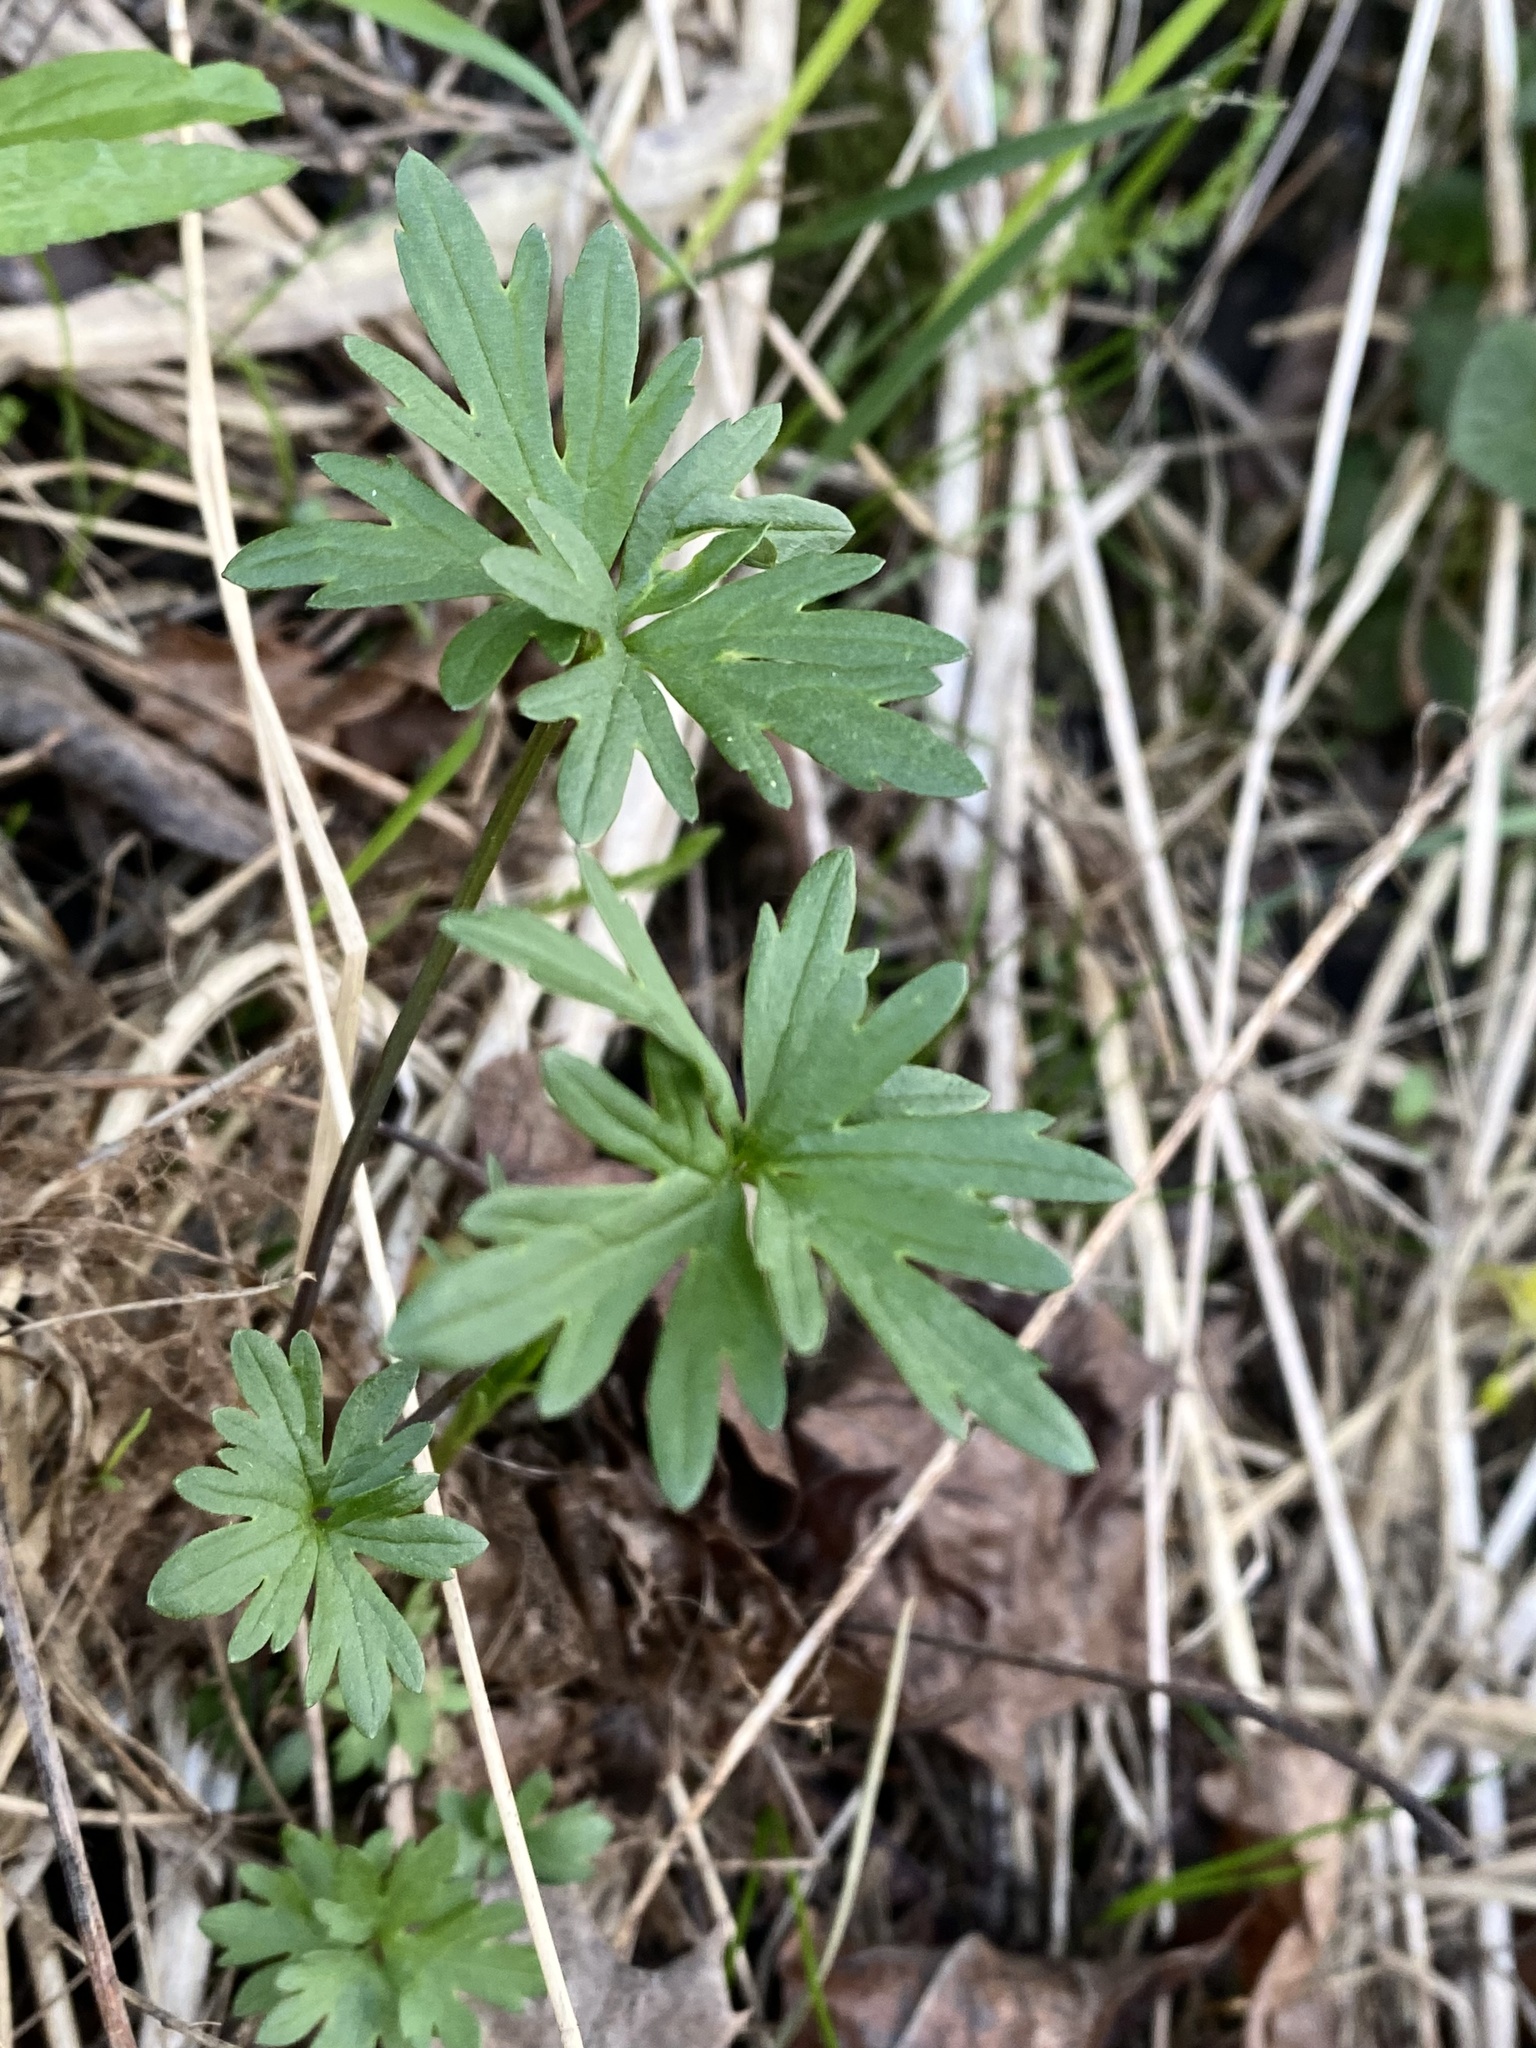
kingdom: Plantae
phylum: Tracheophyta
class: Magnoliopsida
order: Ranunculales
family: Ranunculaceae
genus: Ranunculus
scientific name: Ranunculus acris
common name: Meadow buttercup
